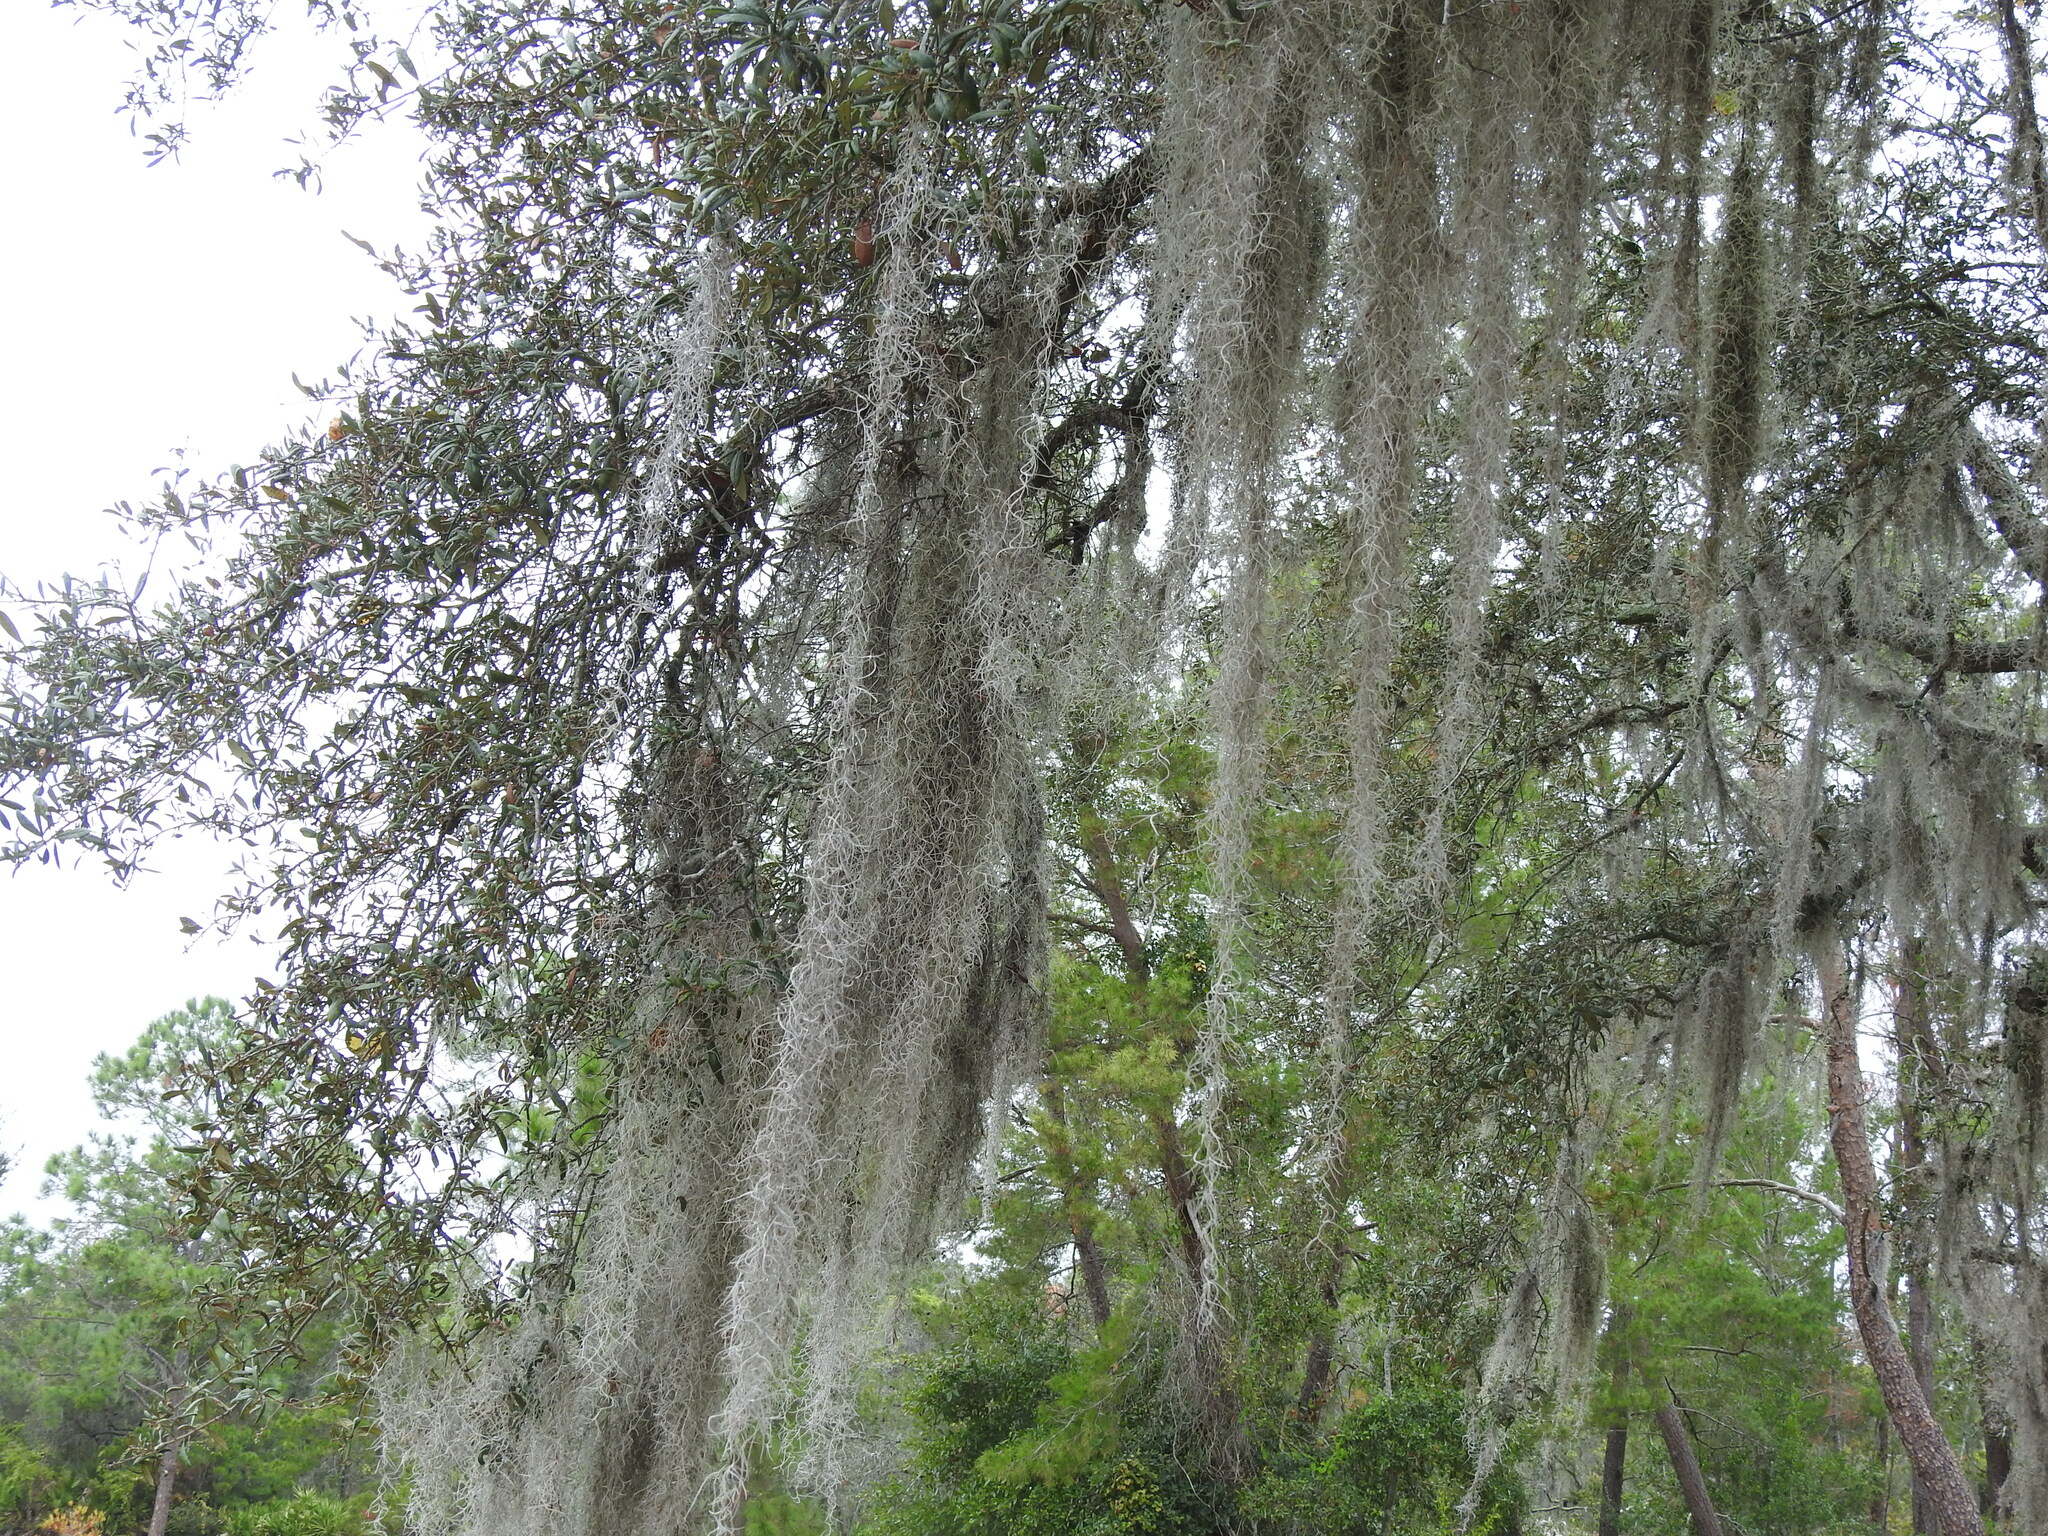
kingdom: Plantae
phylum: Tracheophyta
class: Liliopsida
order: Poales
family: Bromeliaceae
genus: Tillandsia
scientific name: Tillandsia usneoides
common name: Spanish moss
